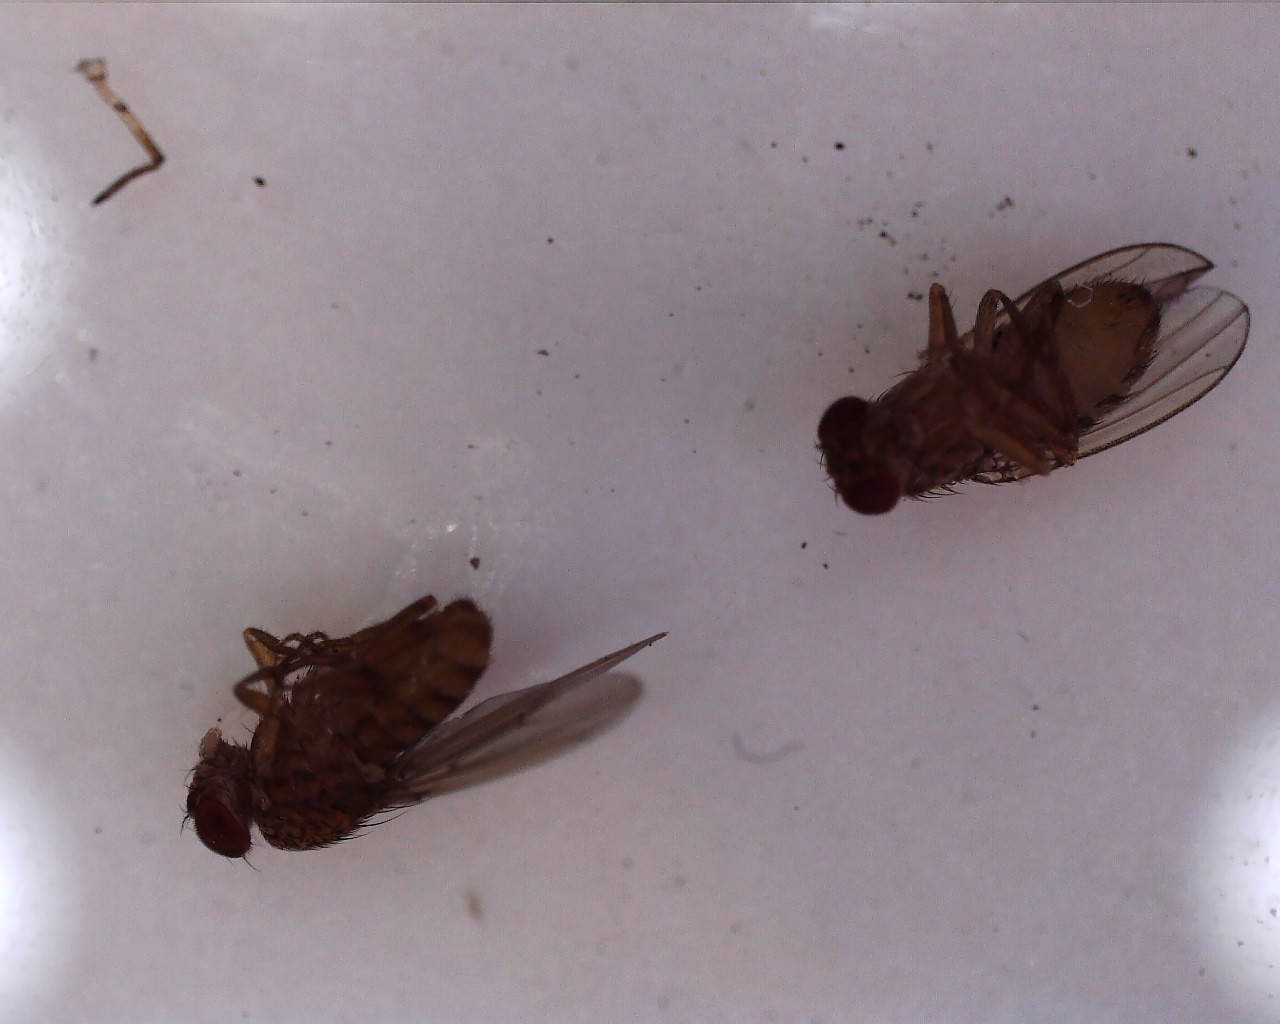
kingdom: Animalia
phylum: Arthropoda
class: Insecta
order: Diptera
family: Drosophilidae
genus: Drosophila
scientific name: Drosophila repleta
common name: Pomace fly
